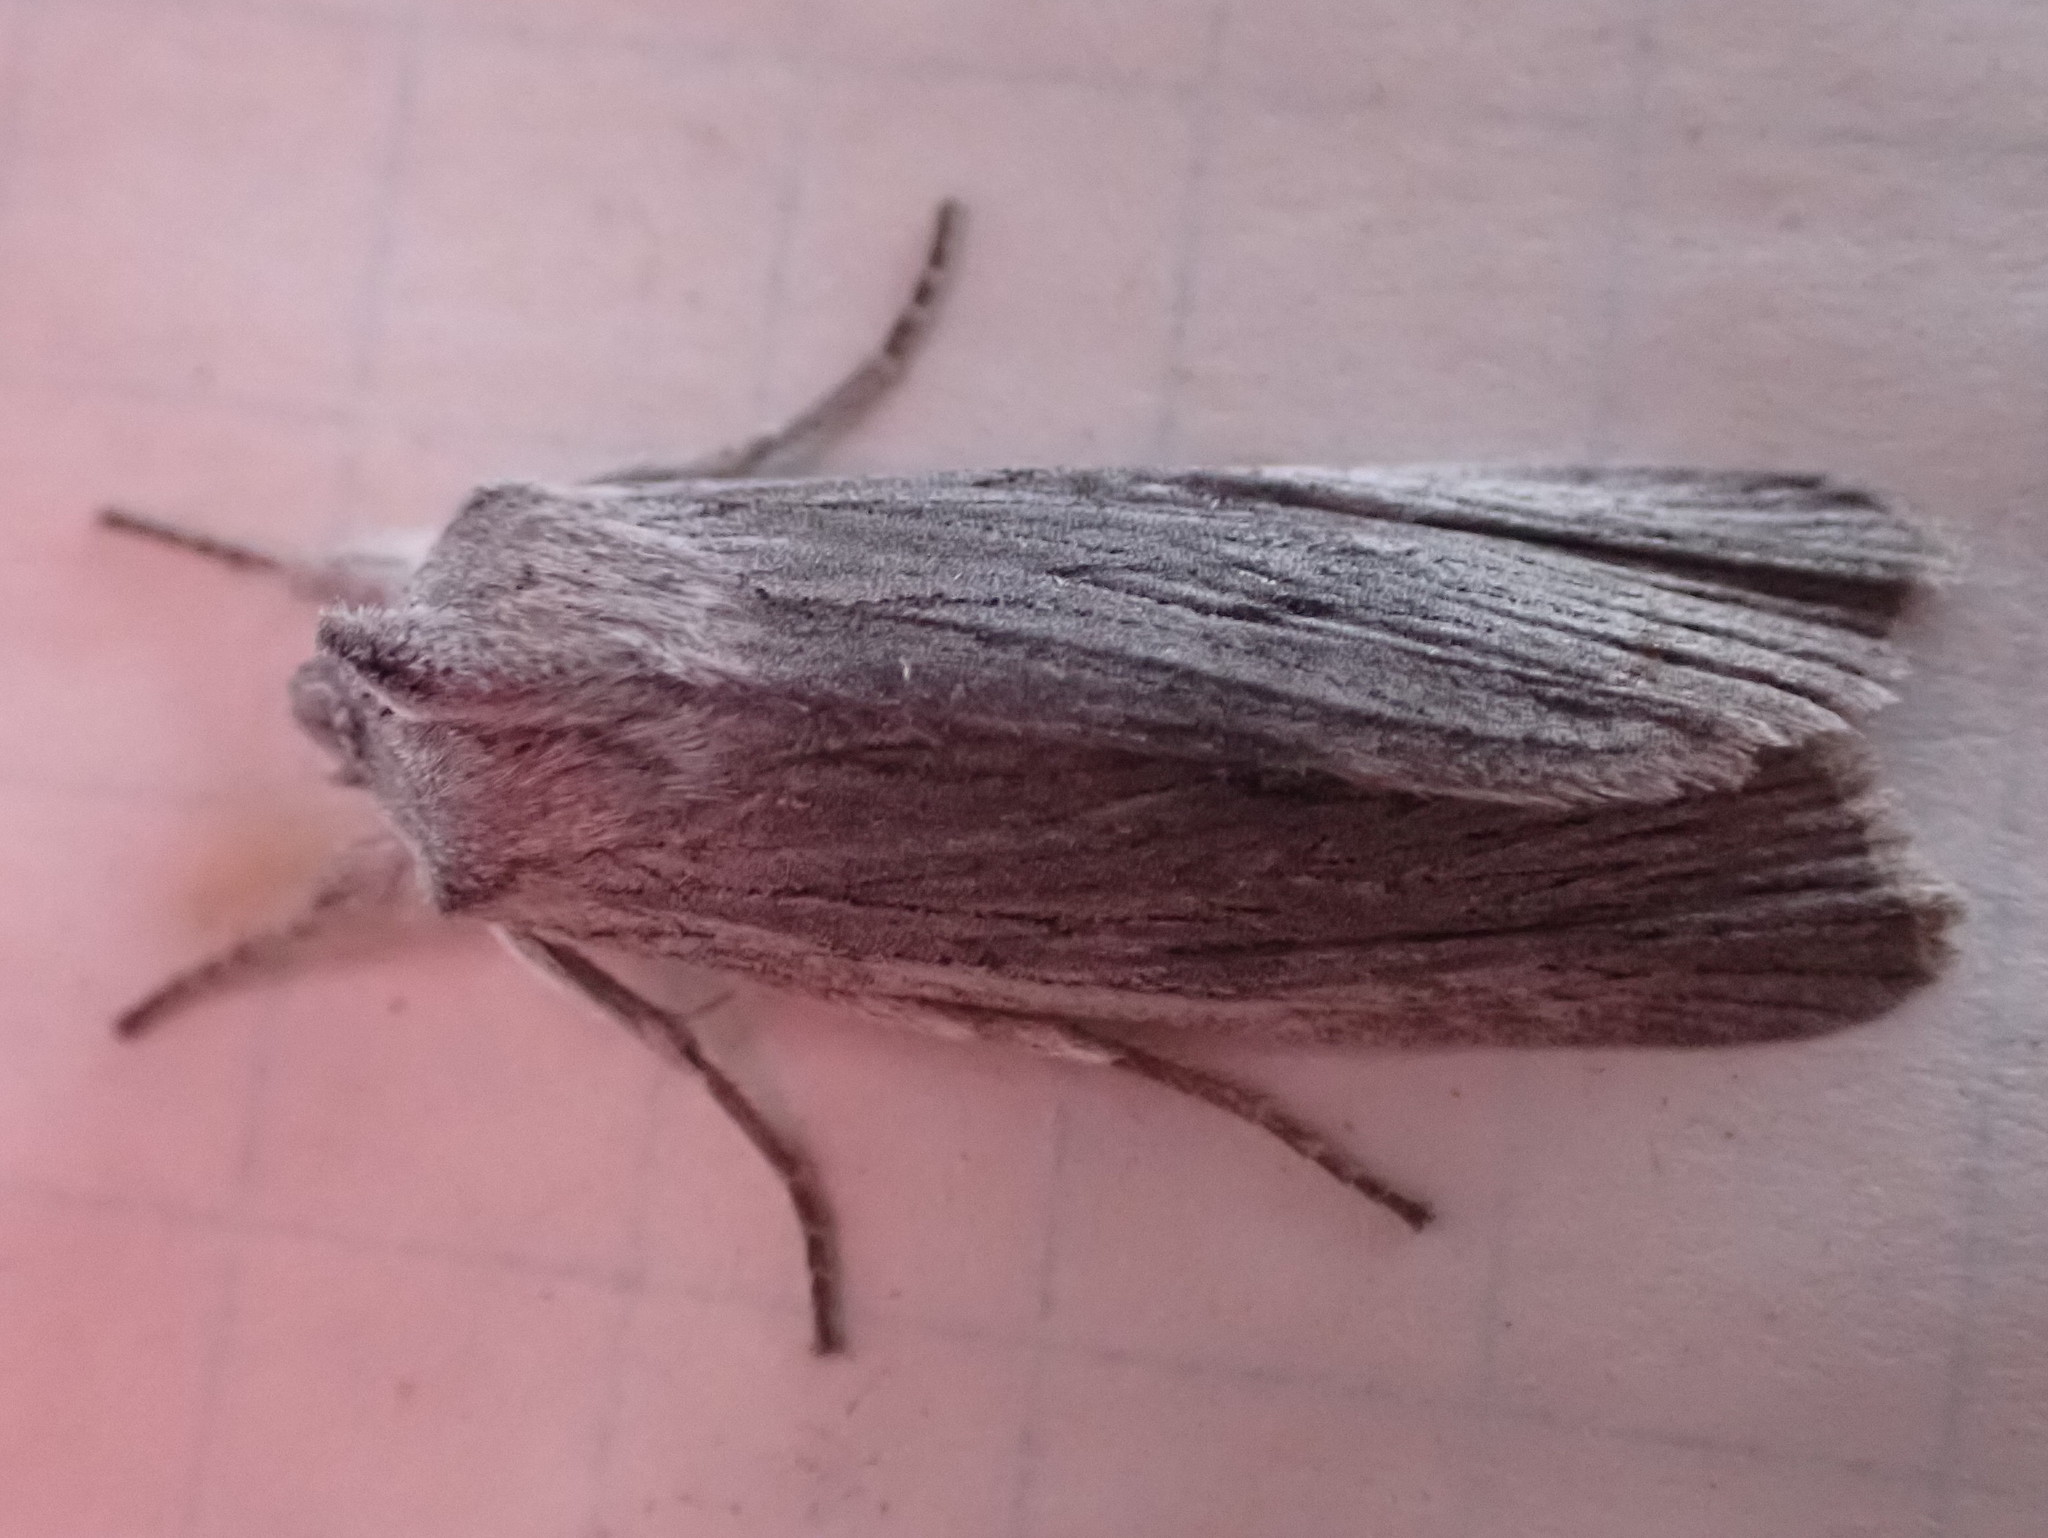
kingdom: Animalia
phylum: Arthropoda
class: Insecta
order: Lepidoptera
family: Noctuidae
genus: Lithophane
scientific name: Lithophane fagina
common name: Hoary pinion moth
